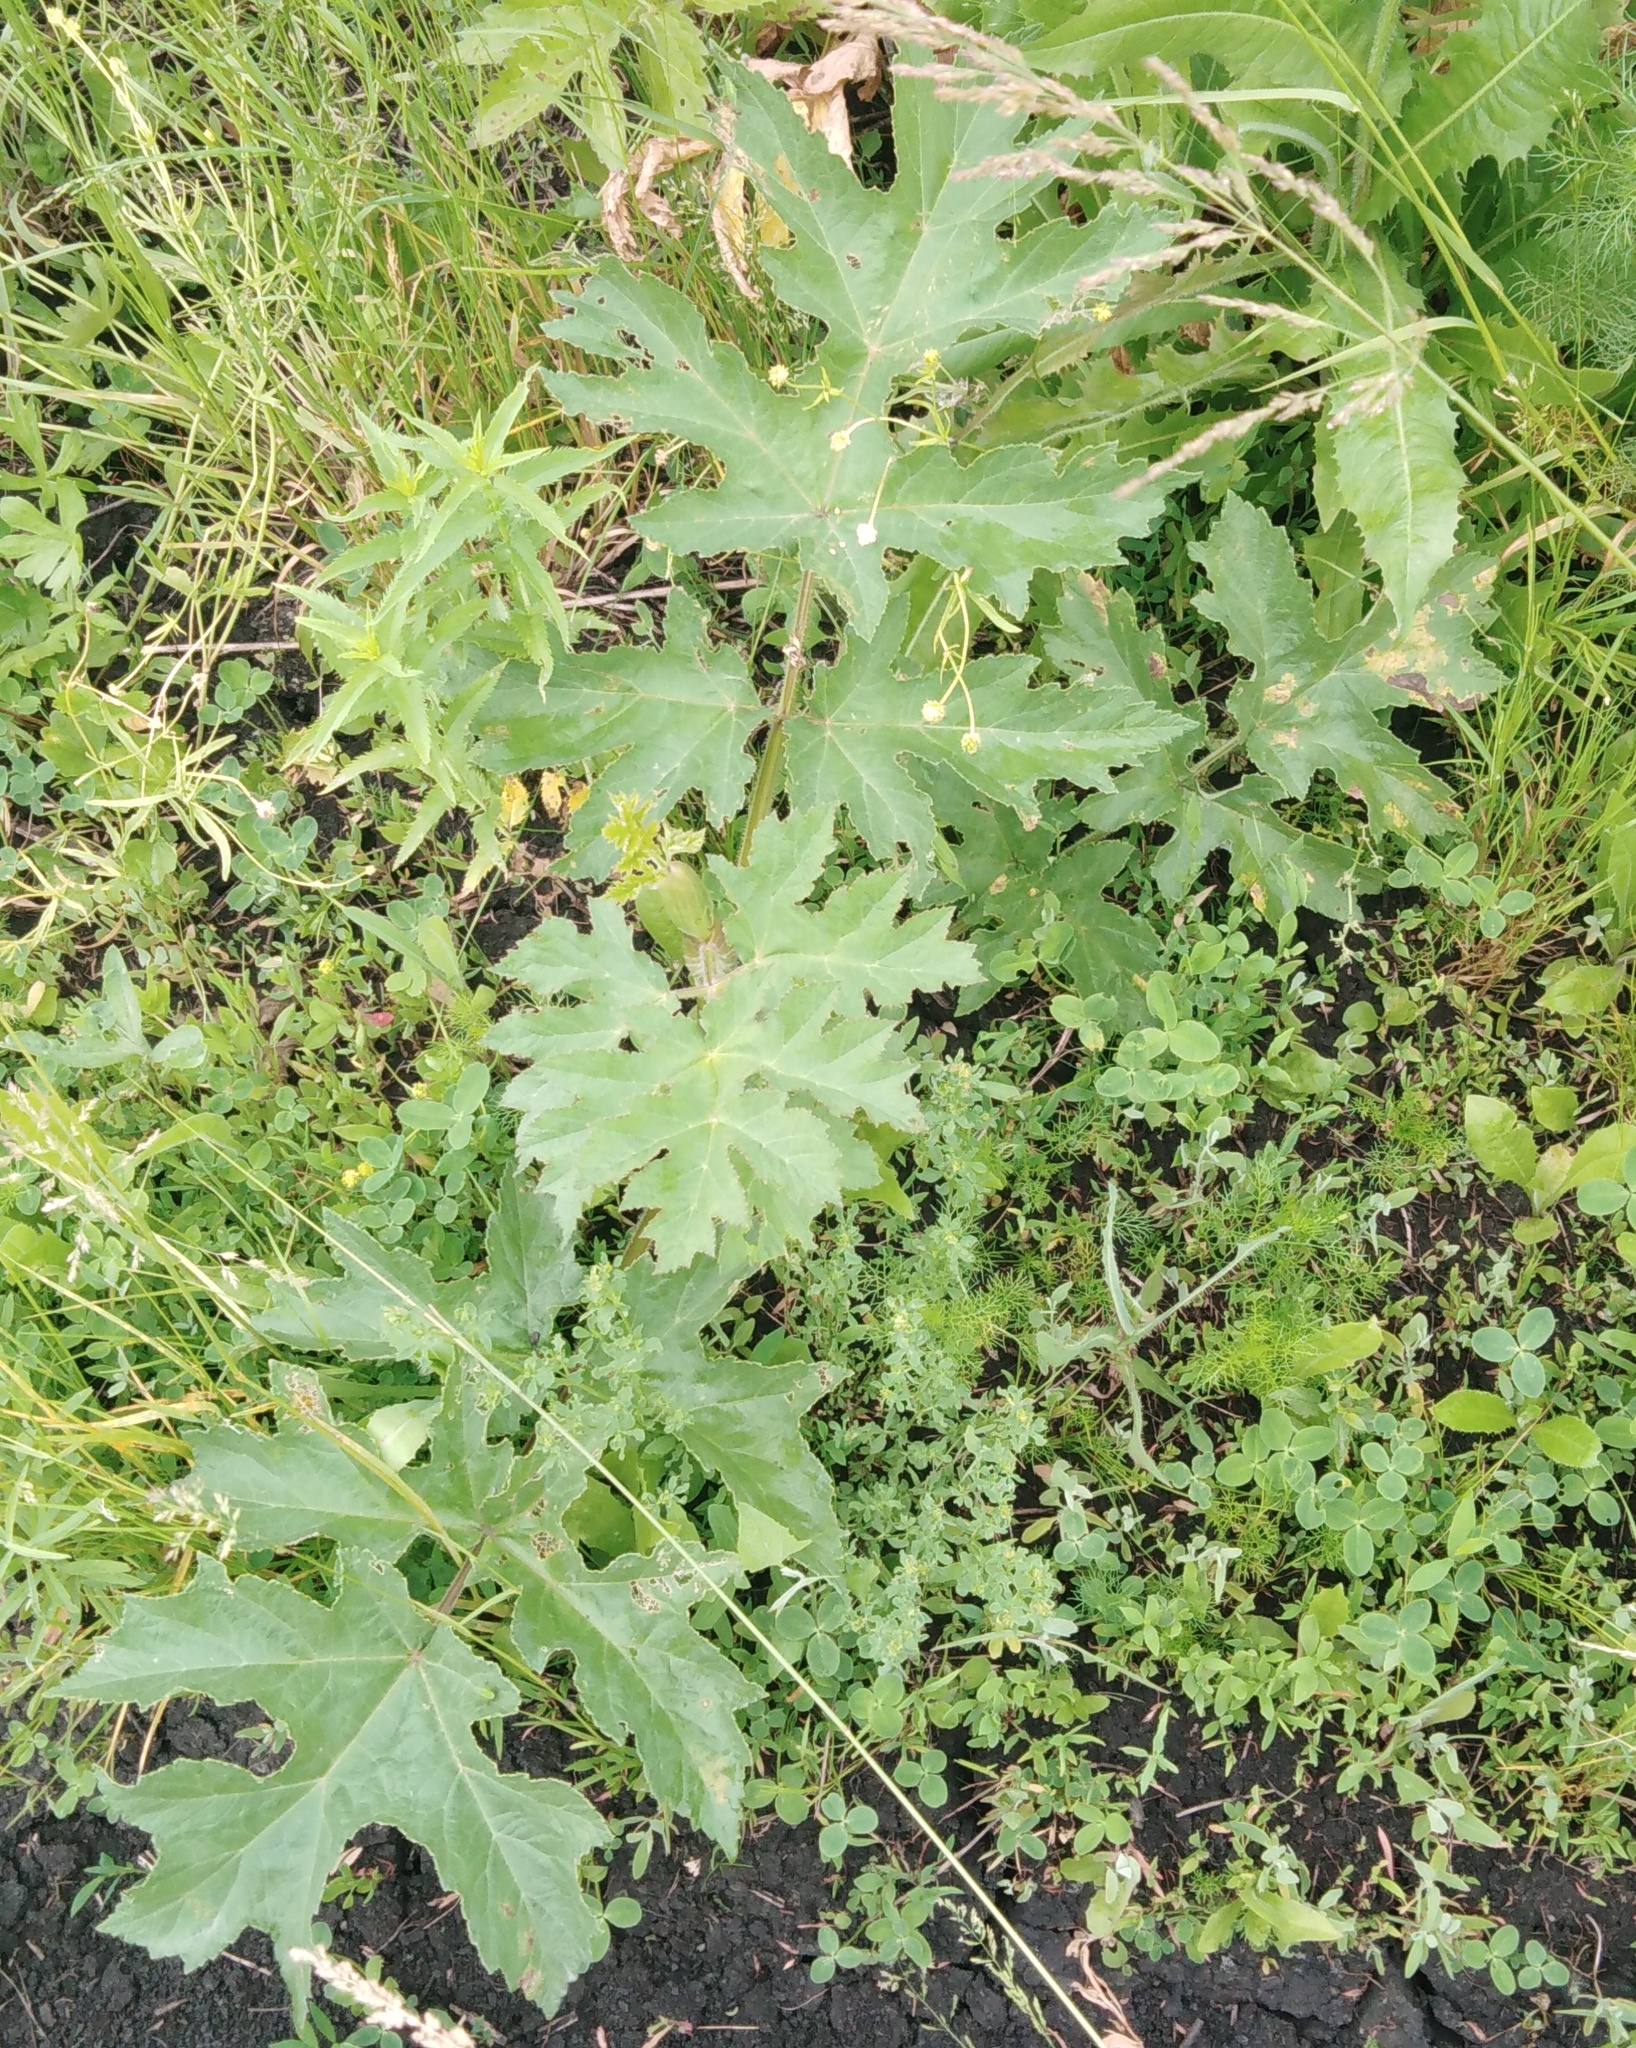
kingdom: Plantae
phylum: Tracheophyta
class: Magnoliopsida
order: Apiales
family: Apiaceae
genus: Heracleum
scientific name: Heracleum sphondylium
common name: Hogweed
